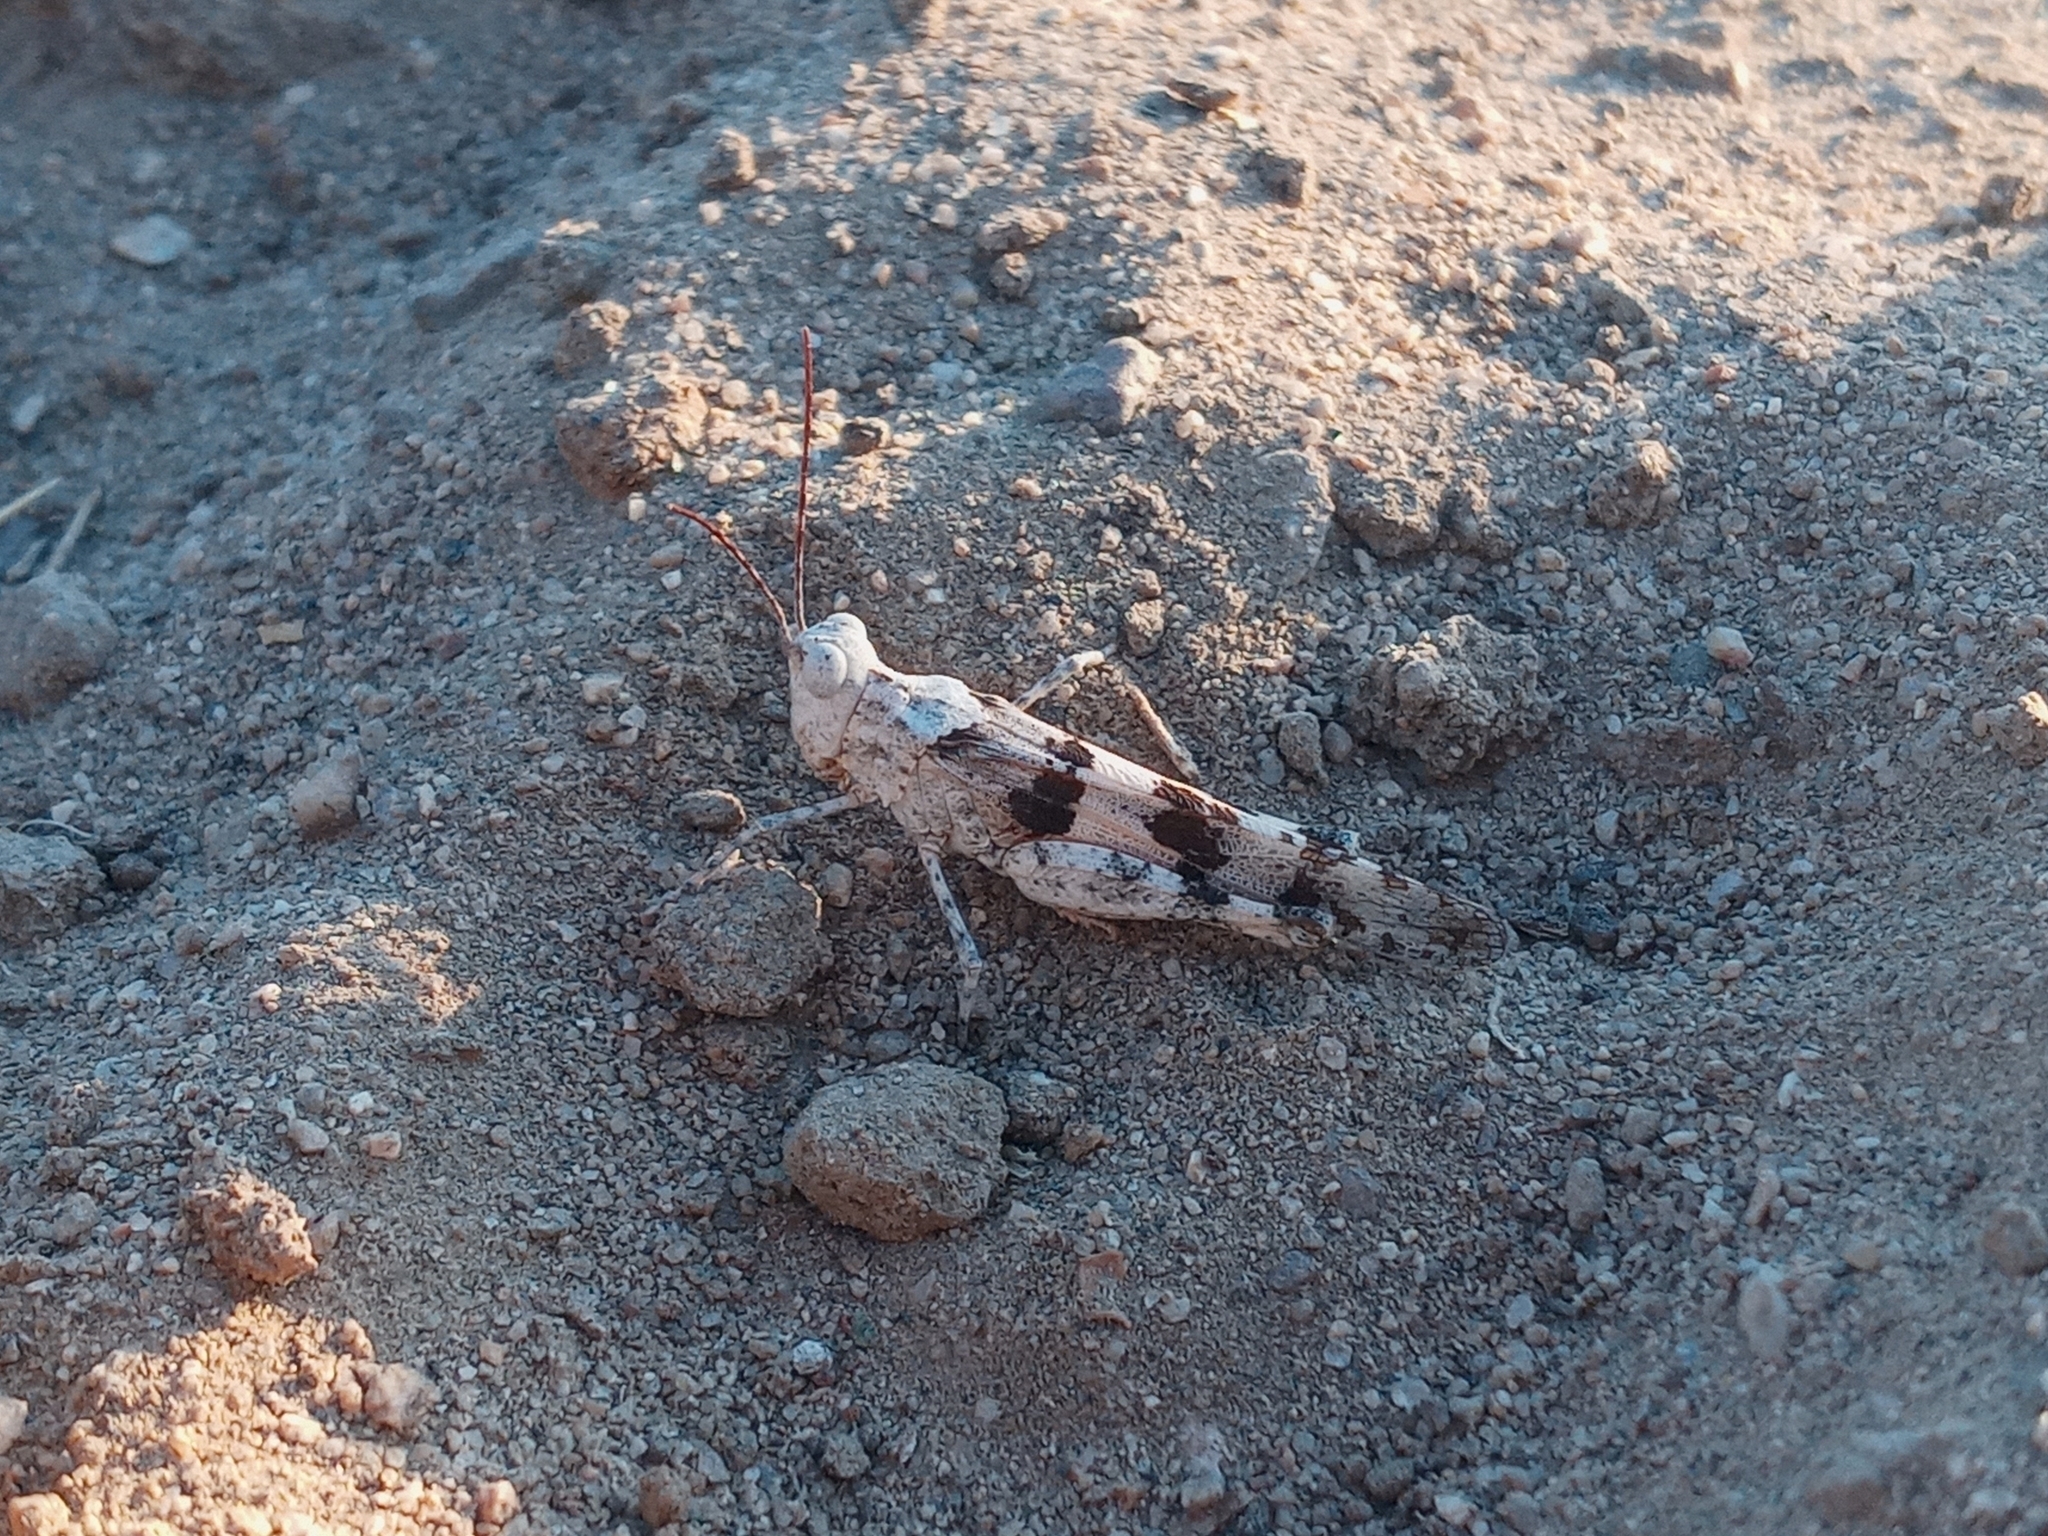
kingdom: Animalia
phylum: Arthropoda
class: Insecta
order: Orthoptera
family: Acrididae
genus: Trimerotropis
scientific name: Trimerotropis titusi
